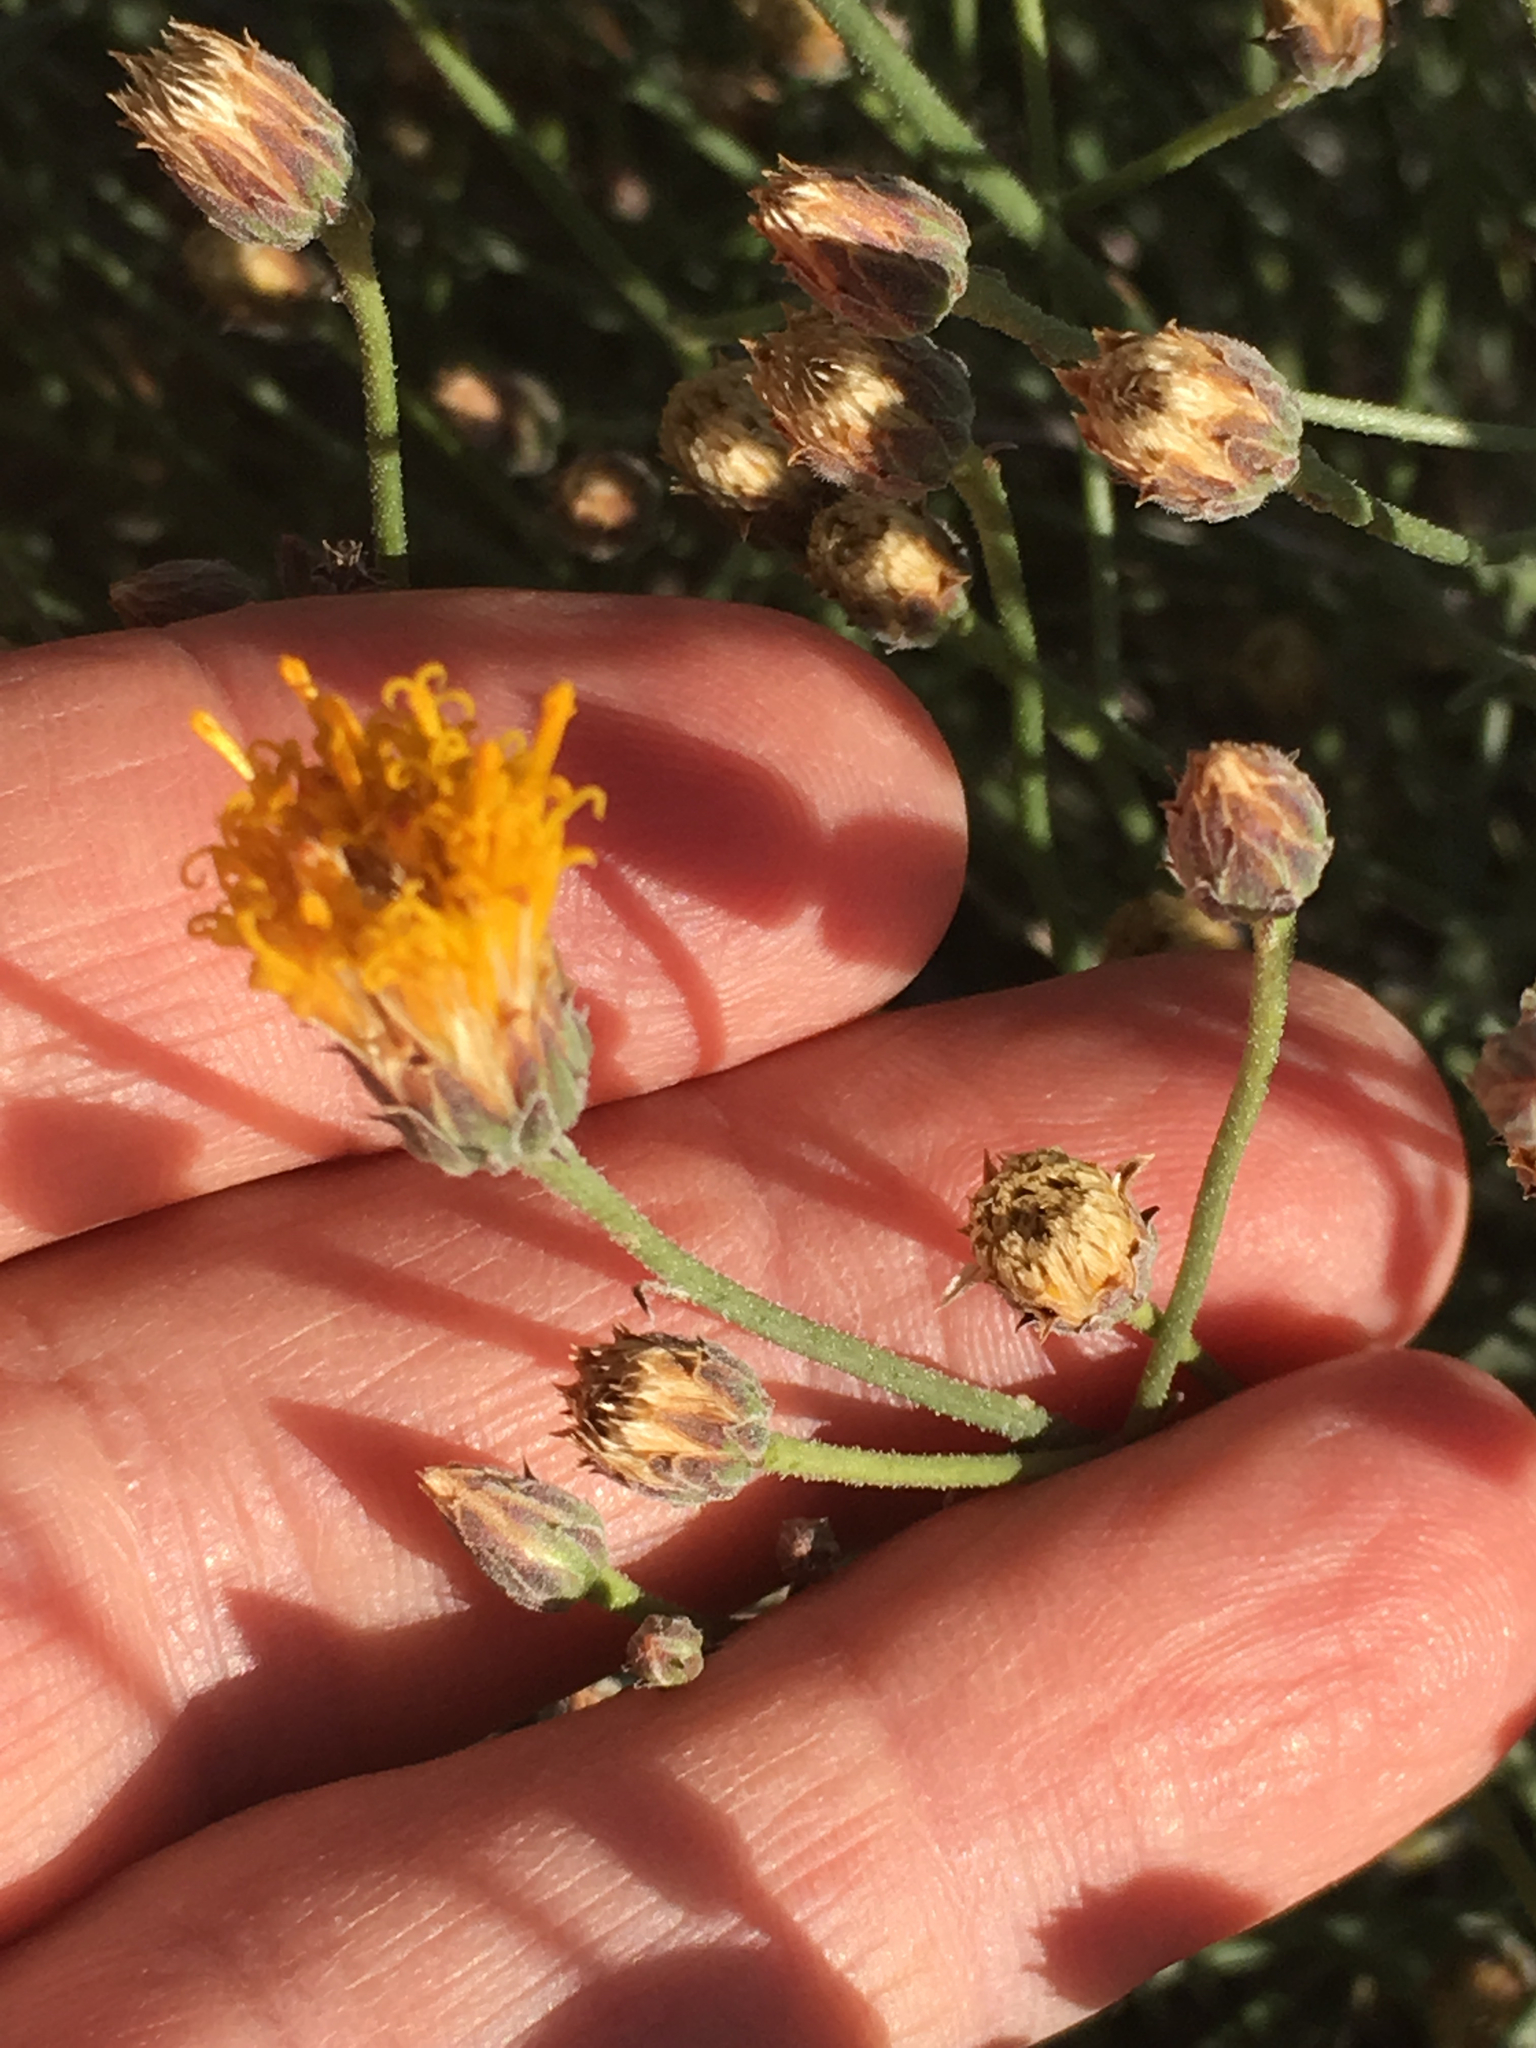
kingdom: Plantae
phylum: Tracheophyta
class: Magnoliopsida
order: Asterales
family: Asteraceae
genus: Bebbia
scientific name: Bebbia juncea
